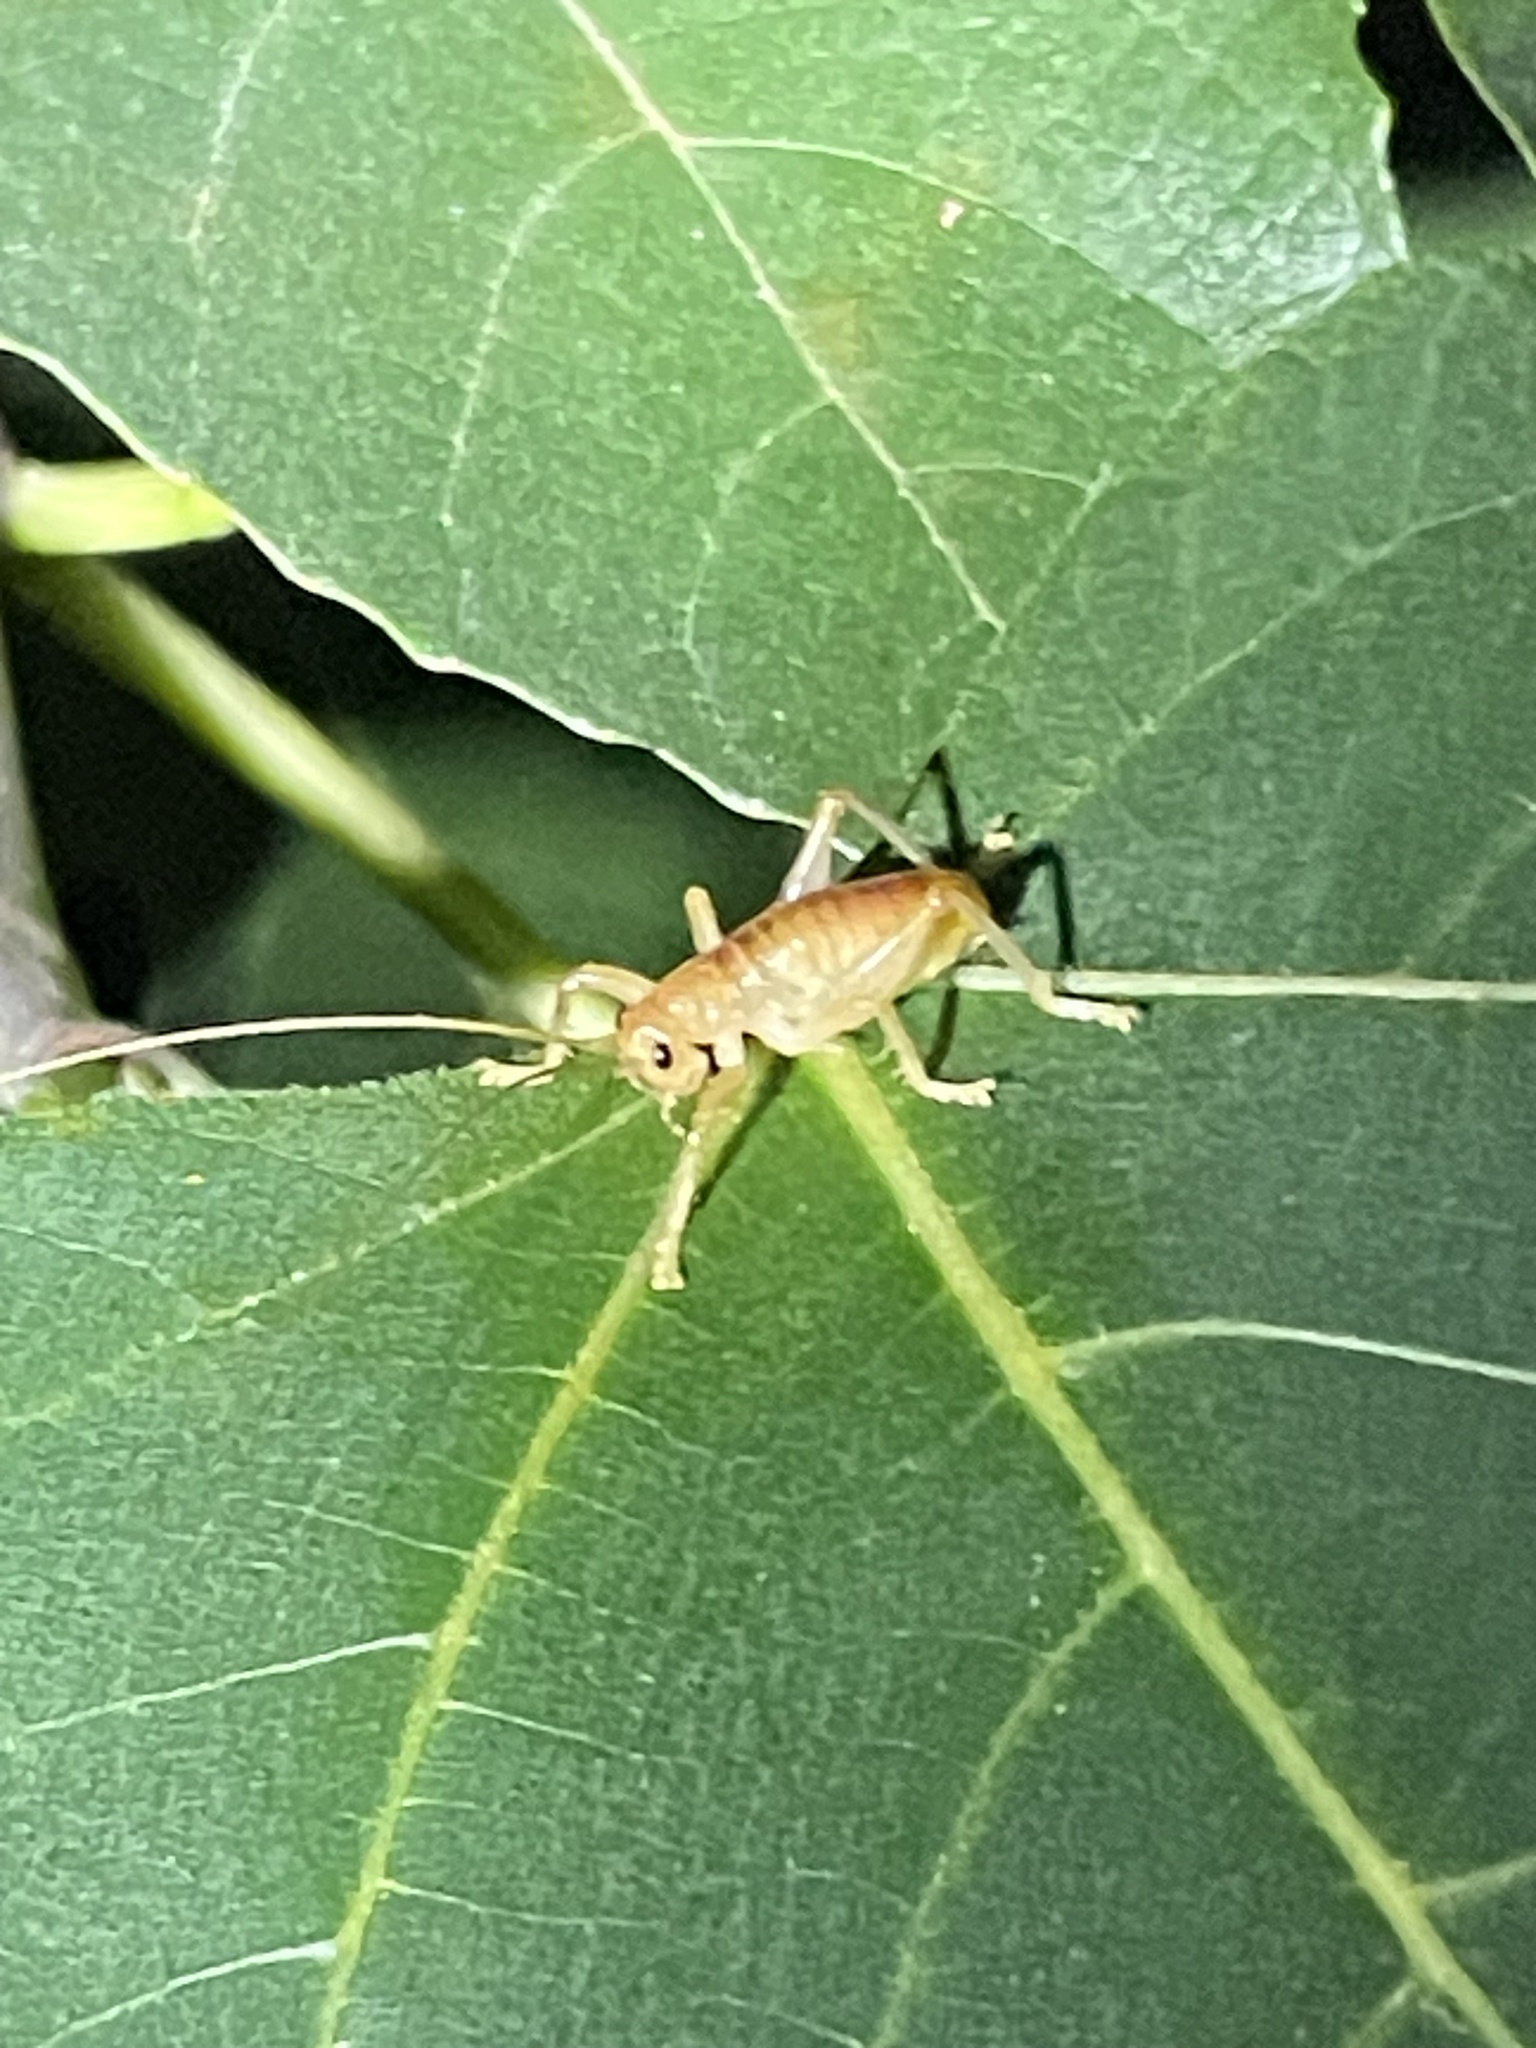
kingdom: Animalia
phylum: Arthropoda
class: Insecta
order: Orthoptera
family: Gryllacrididae
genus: Camptonotus
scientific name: Camptonotus carolinensis
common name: Carolina leaf-roller
